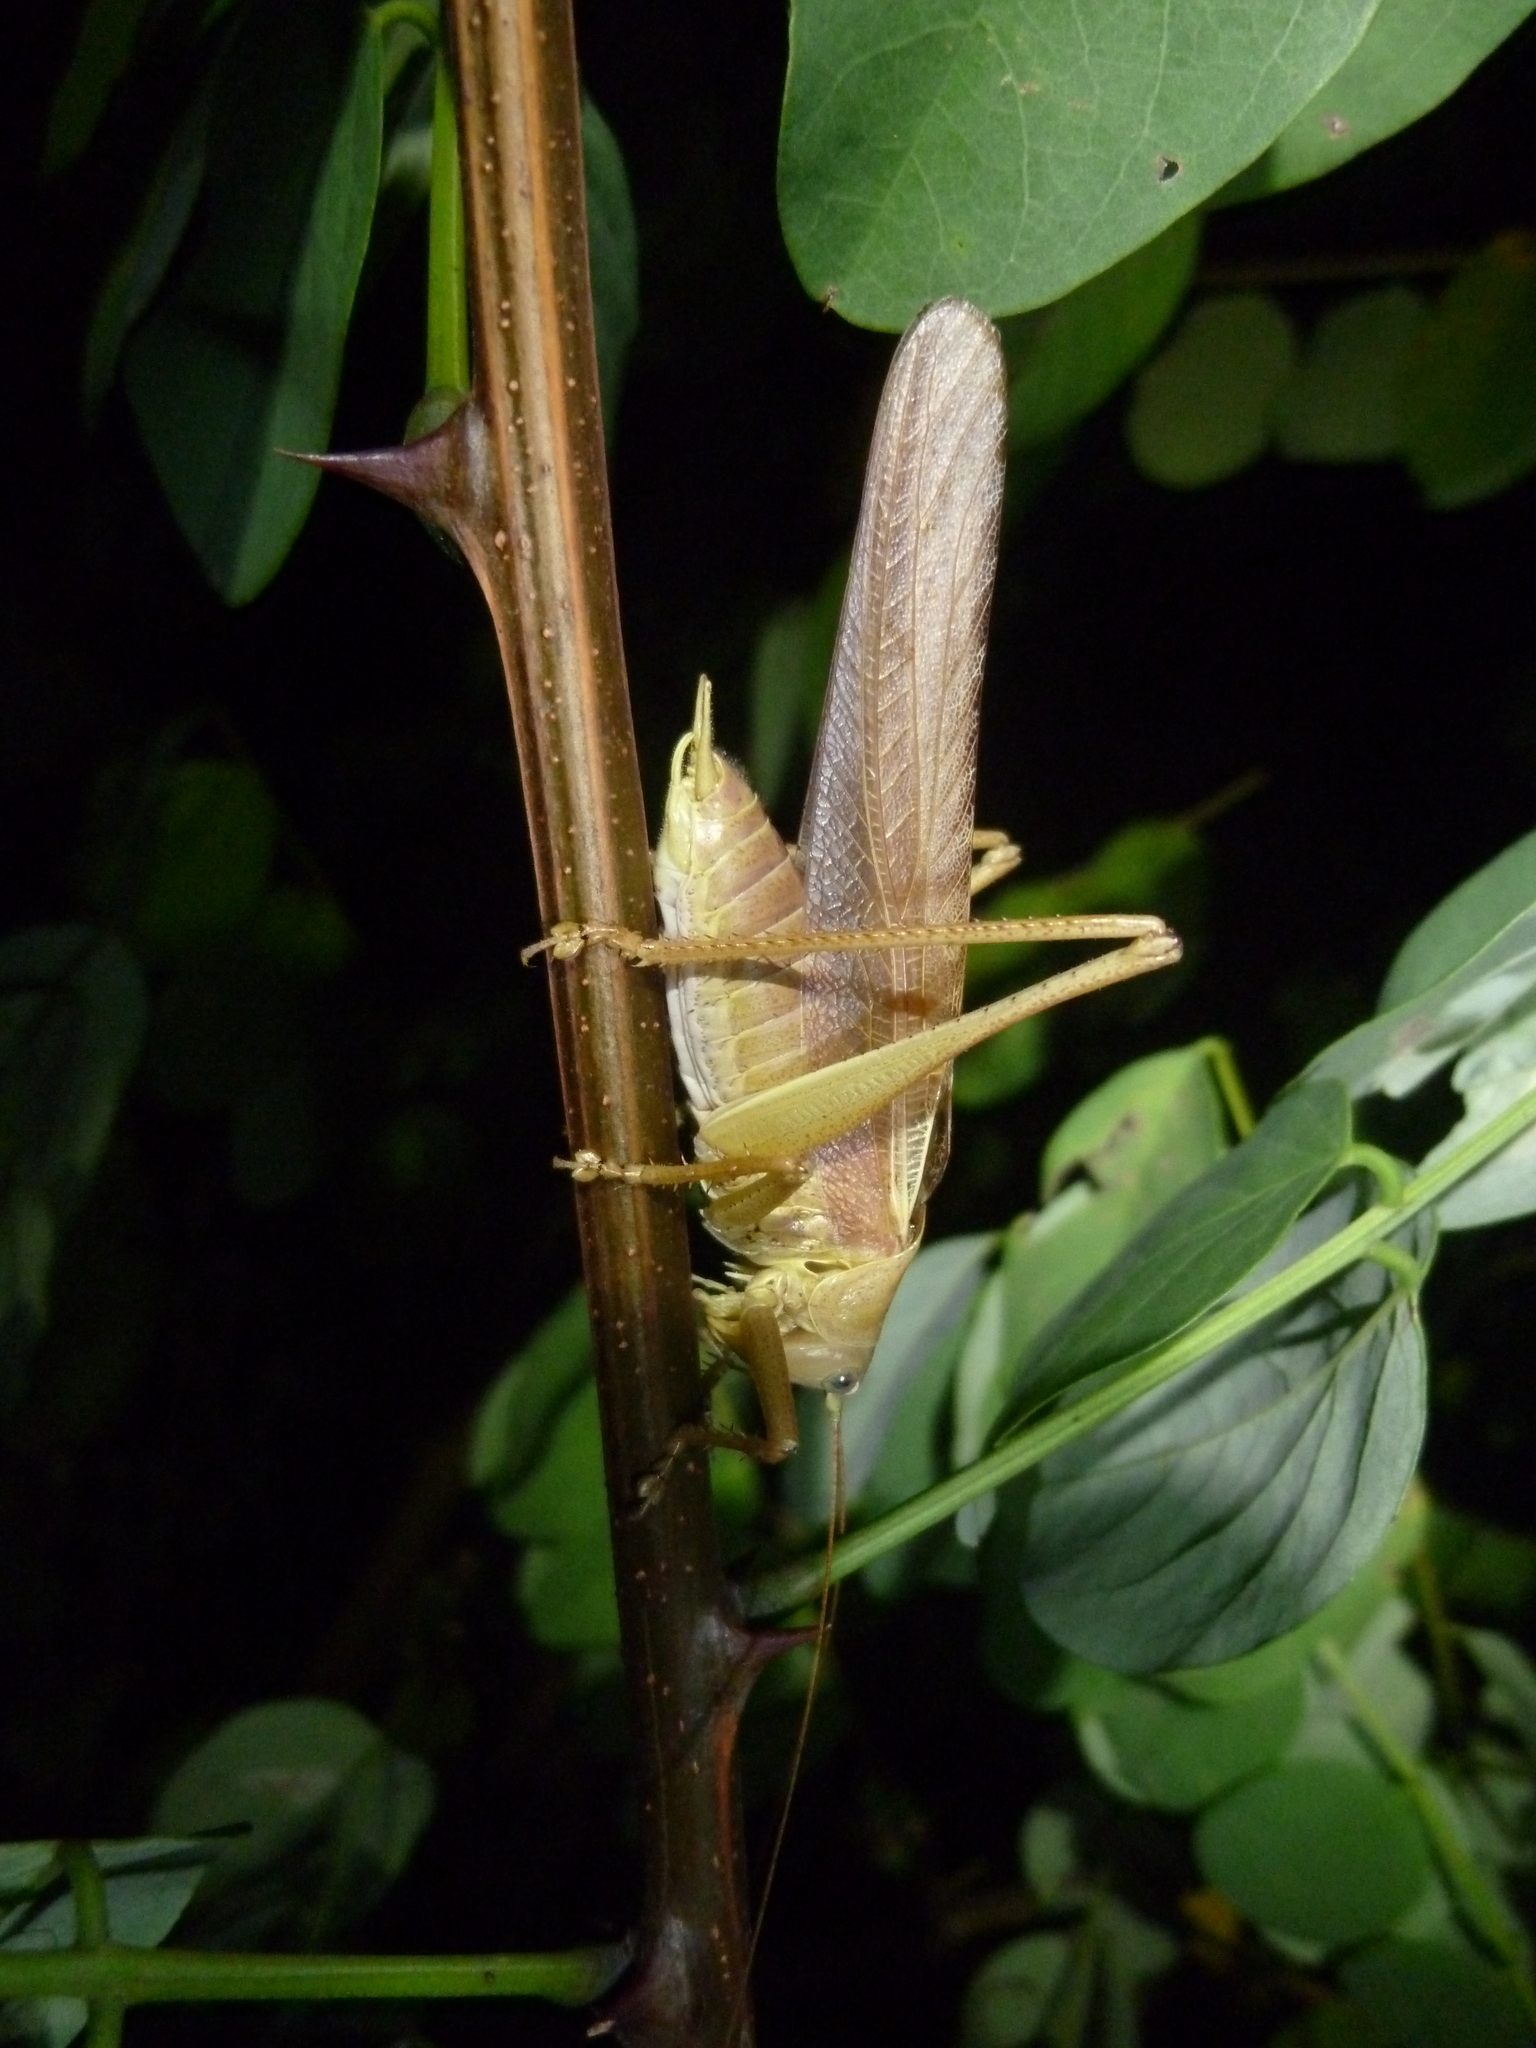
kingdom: Animalia
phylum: Arthropoda
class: Insecta
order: Orthoptera
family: Tettigoniidae
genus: Tettigonia
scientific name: Tettigonia viridissima
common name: Great green bush-cricket
